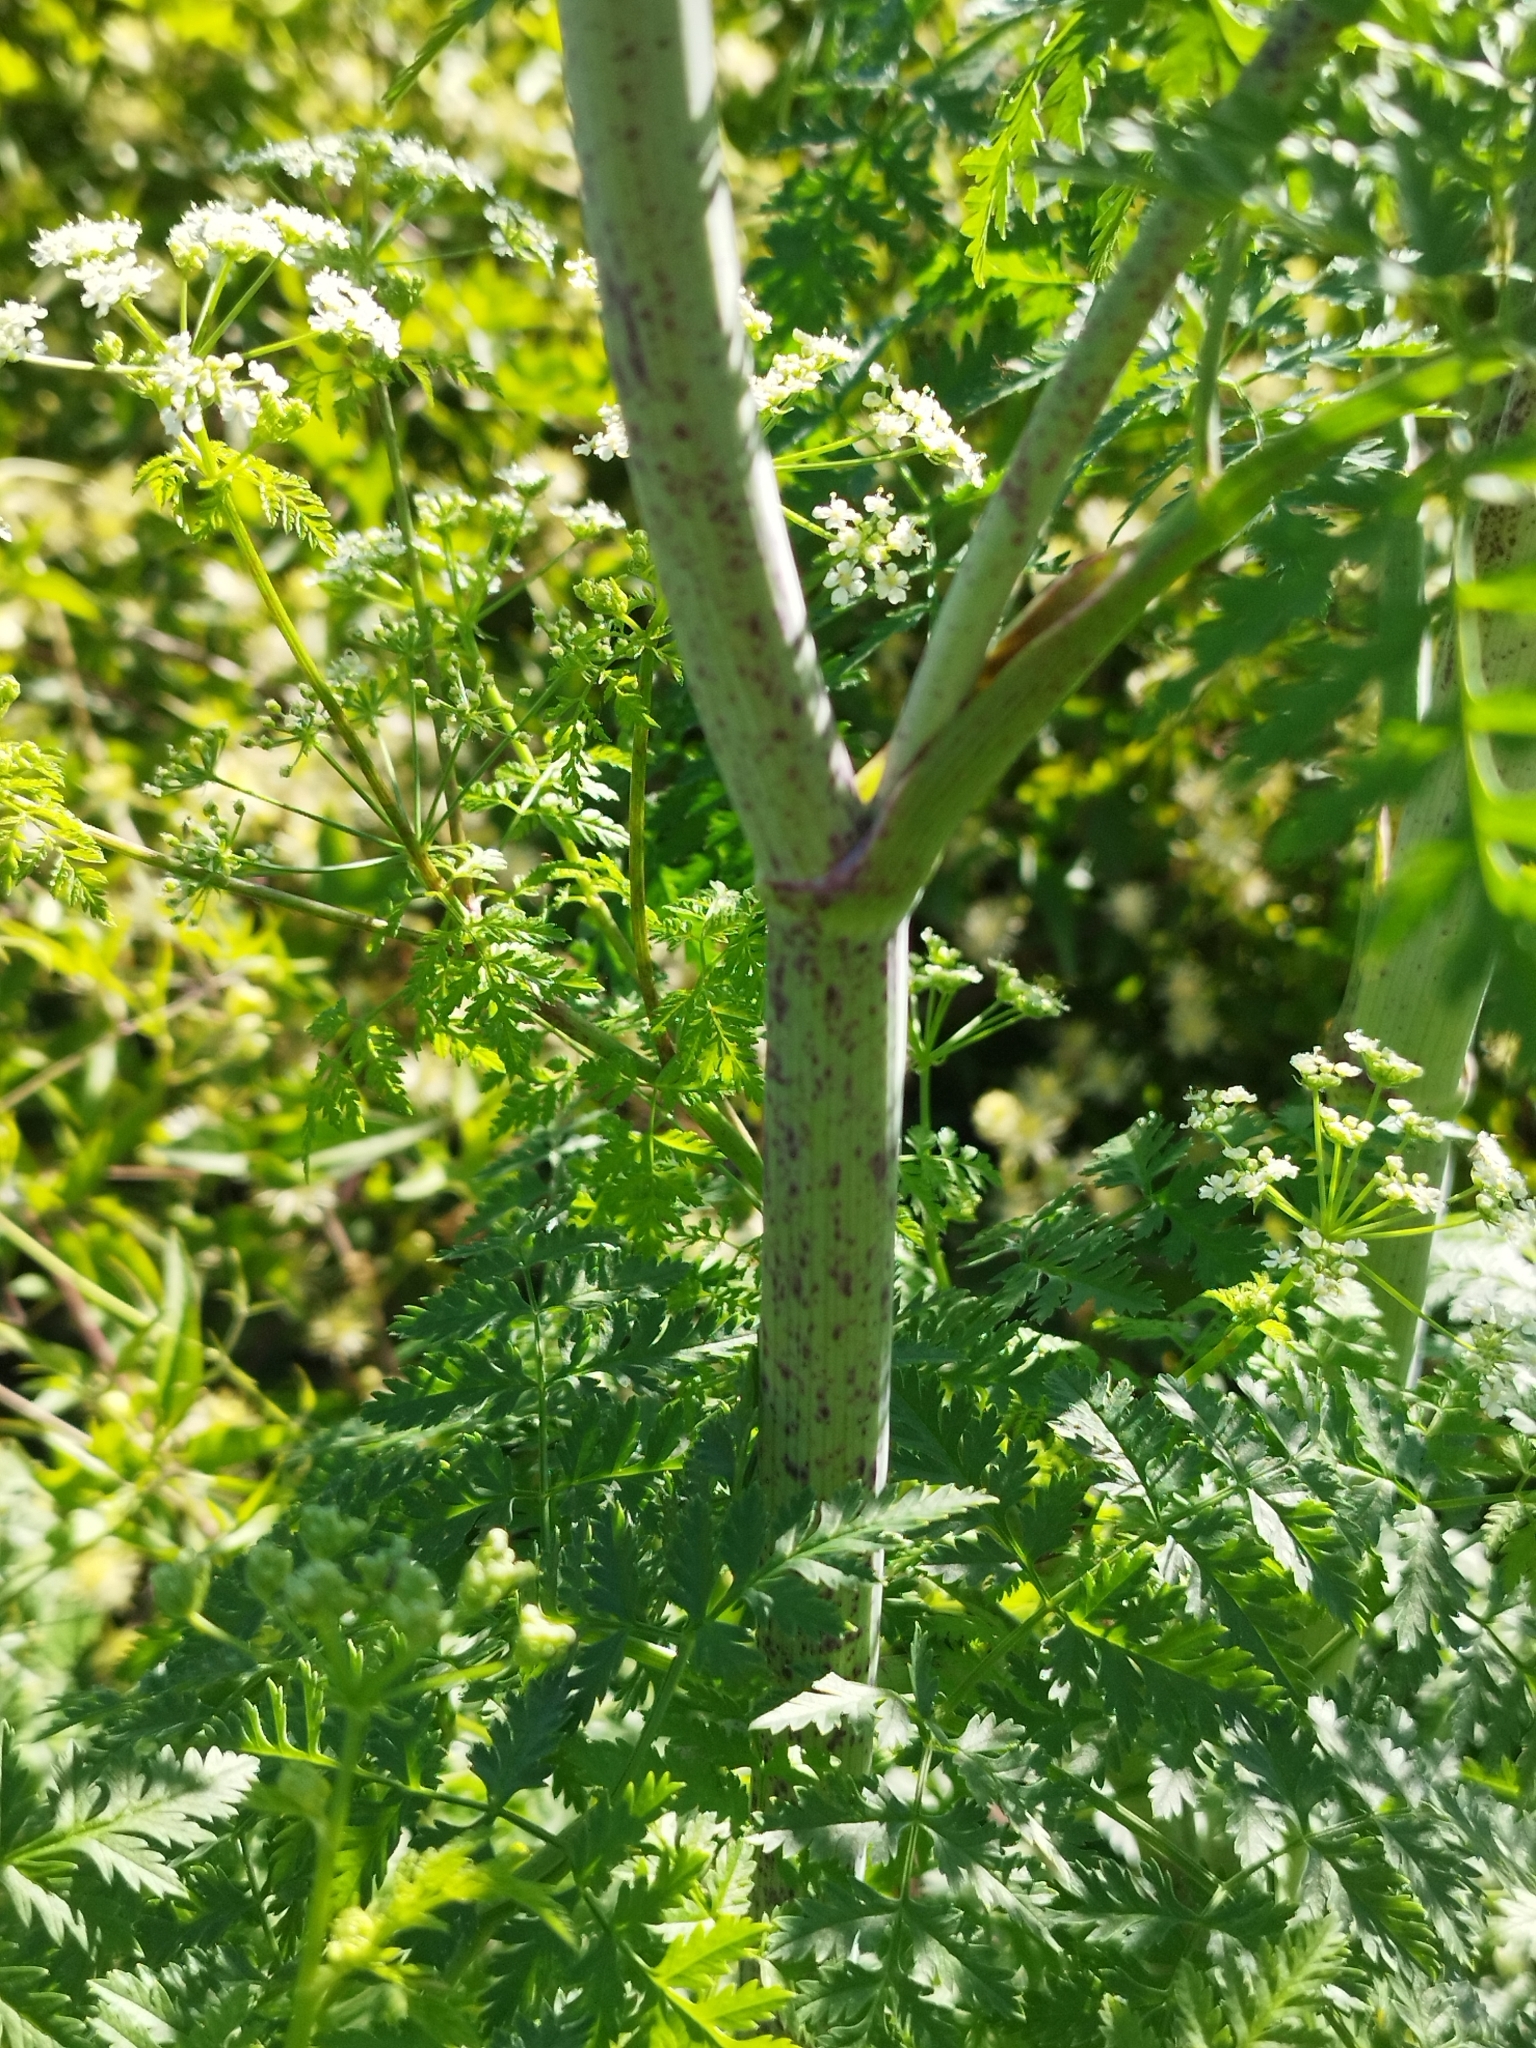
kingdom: Plantae
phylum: Tracheophyta
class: Magnoliopsida
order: Apiales
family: Apiaceae
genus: Conium
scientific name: Conium maculatum
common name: Hemlock
